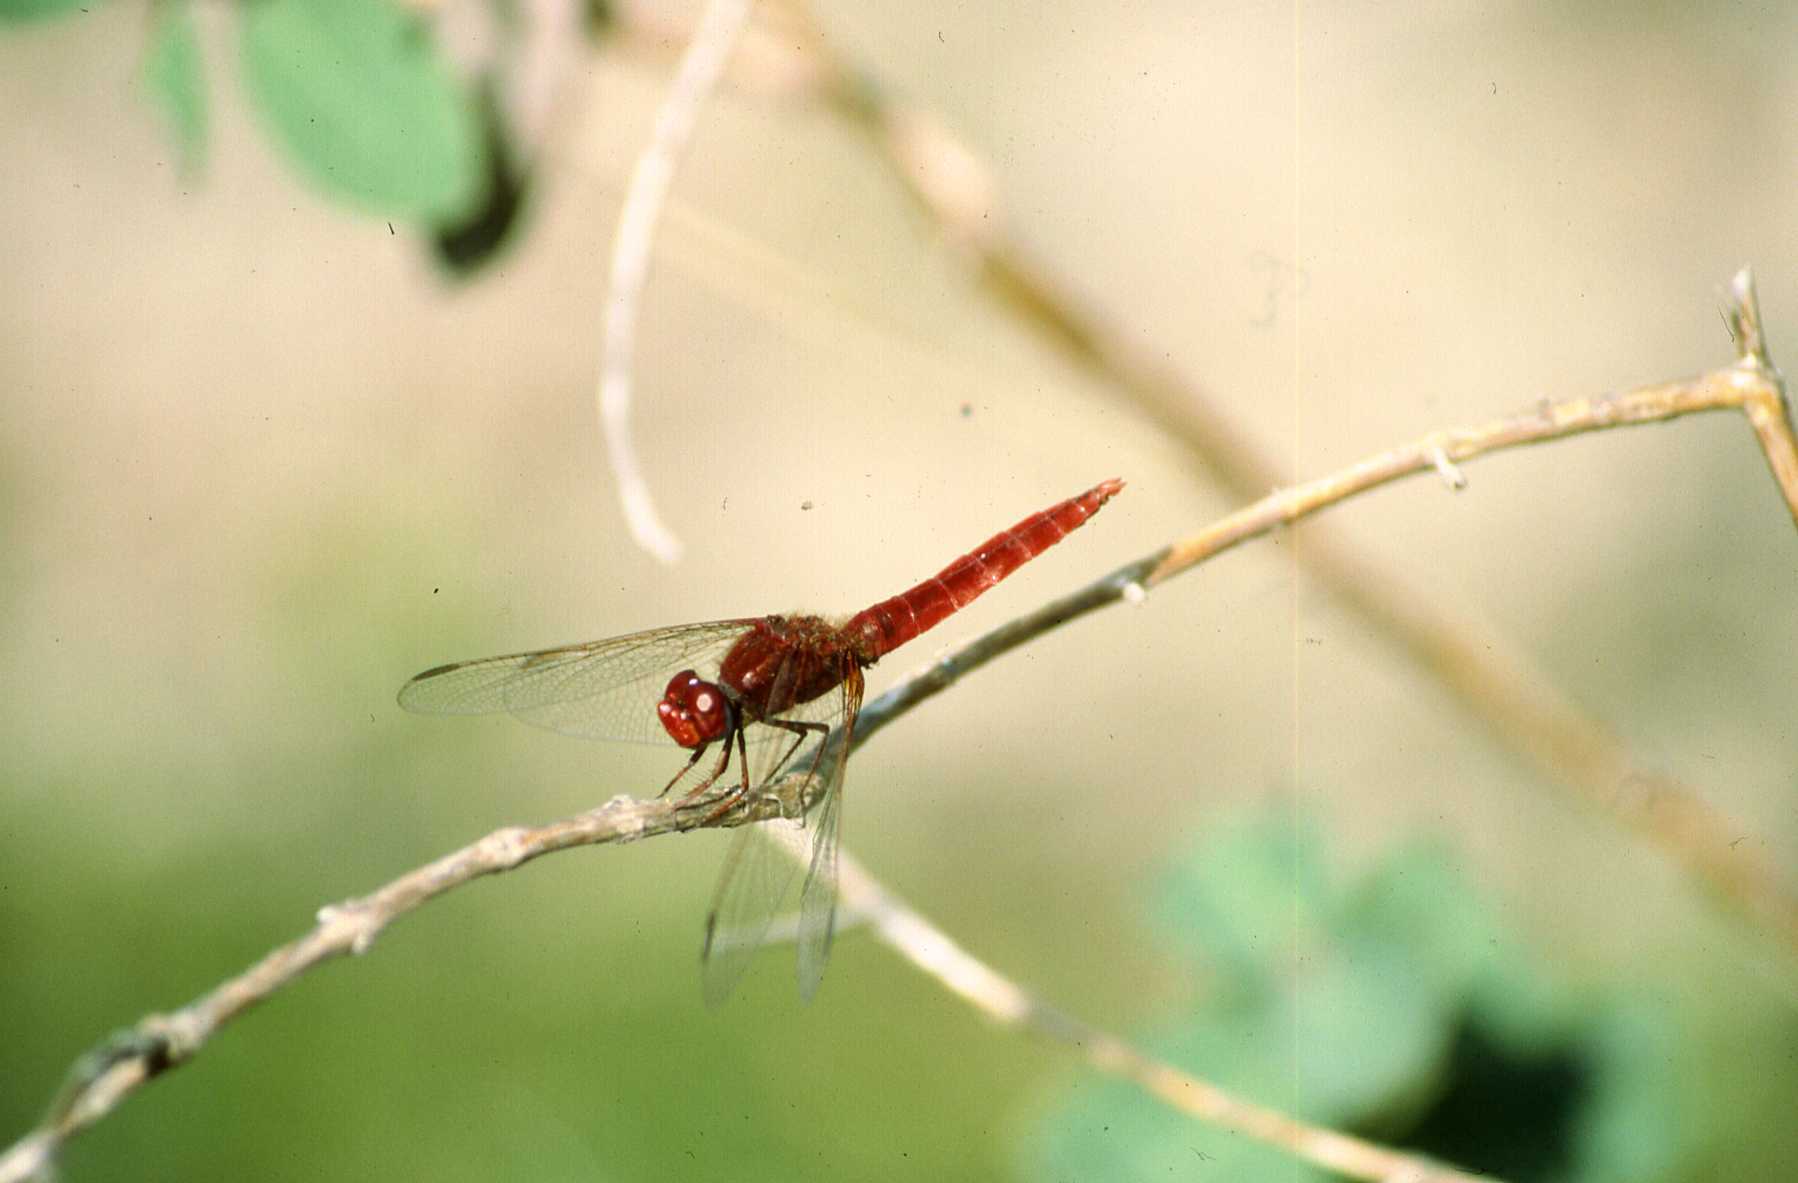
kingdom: Animalia
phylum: Arthropoda
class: Insecta
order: Odonata
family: Libellulidae
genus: Crocothemis
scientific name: Crocothemis erythraea
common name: Scarlet dragonfly
